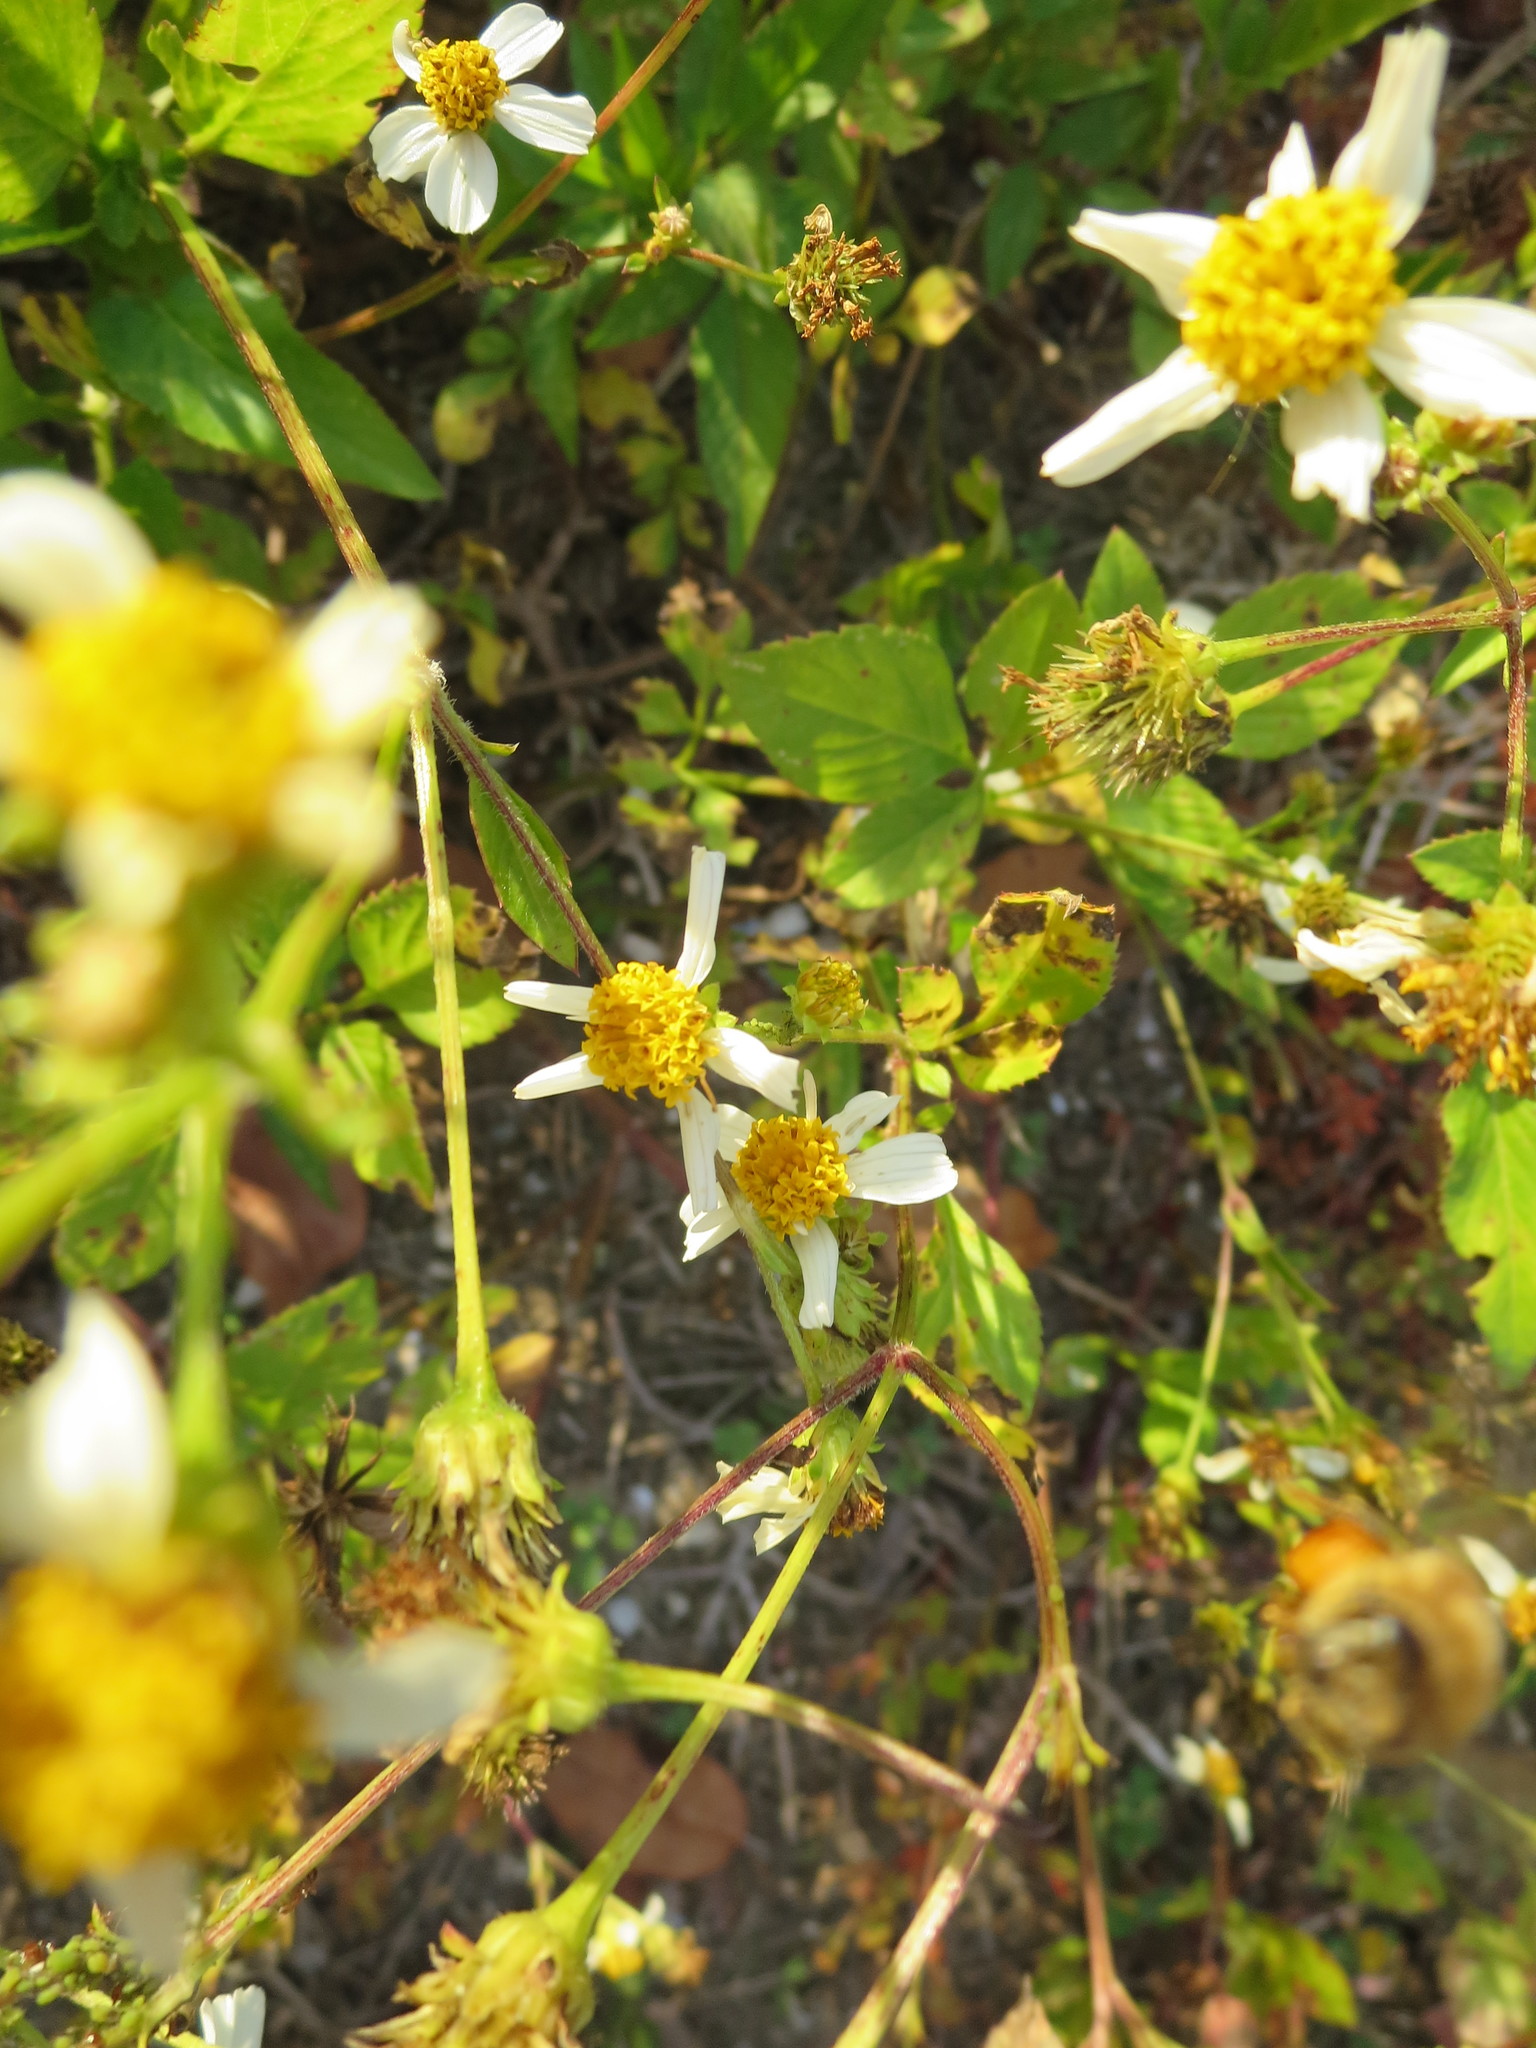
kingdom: Plantae
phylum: Tracheophyta
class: Magnoliopsida
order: Asterales
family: Asteraceae
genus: Bidens
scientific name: Bidens alba
